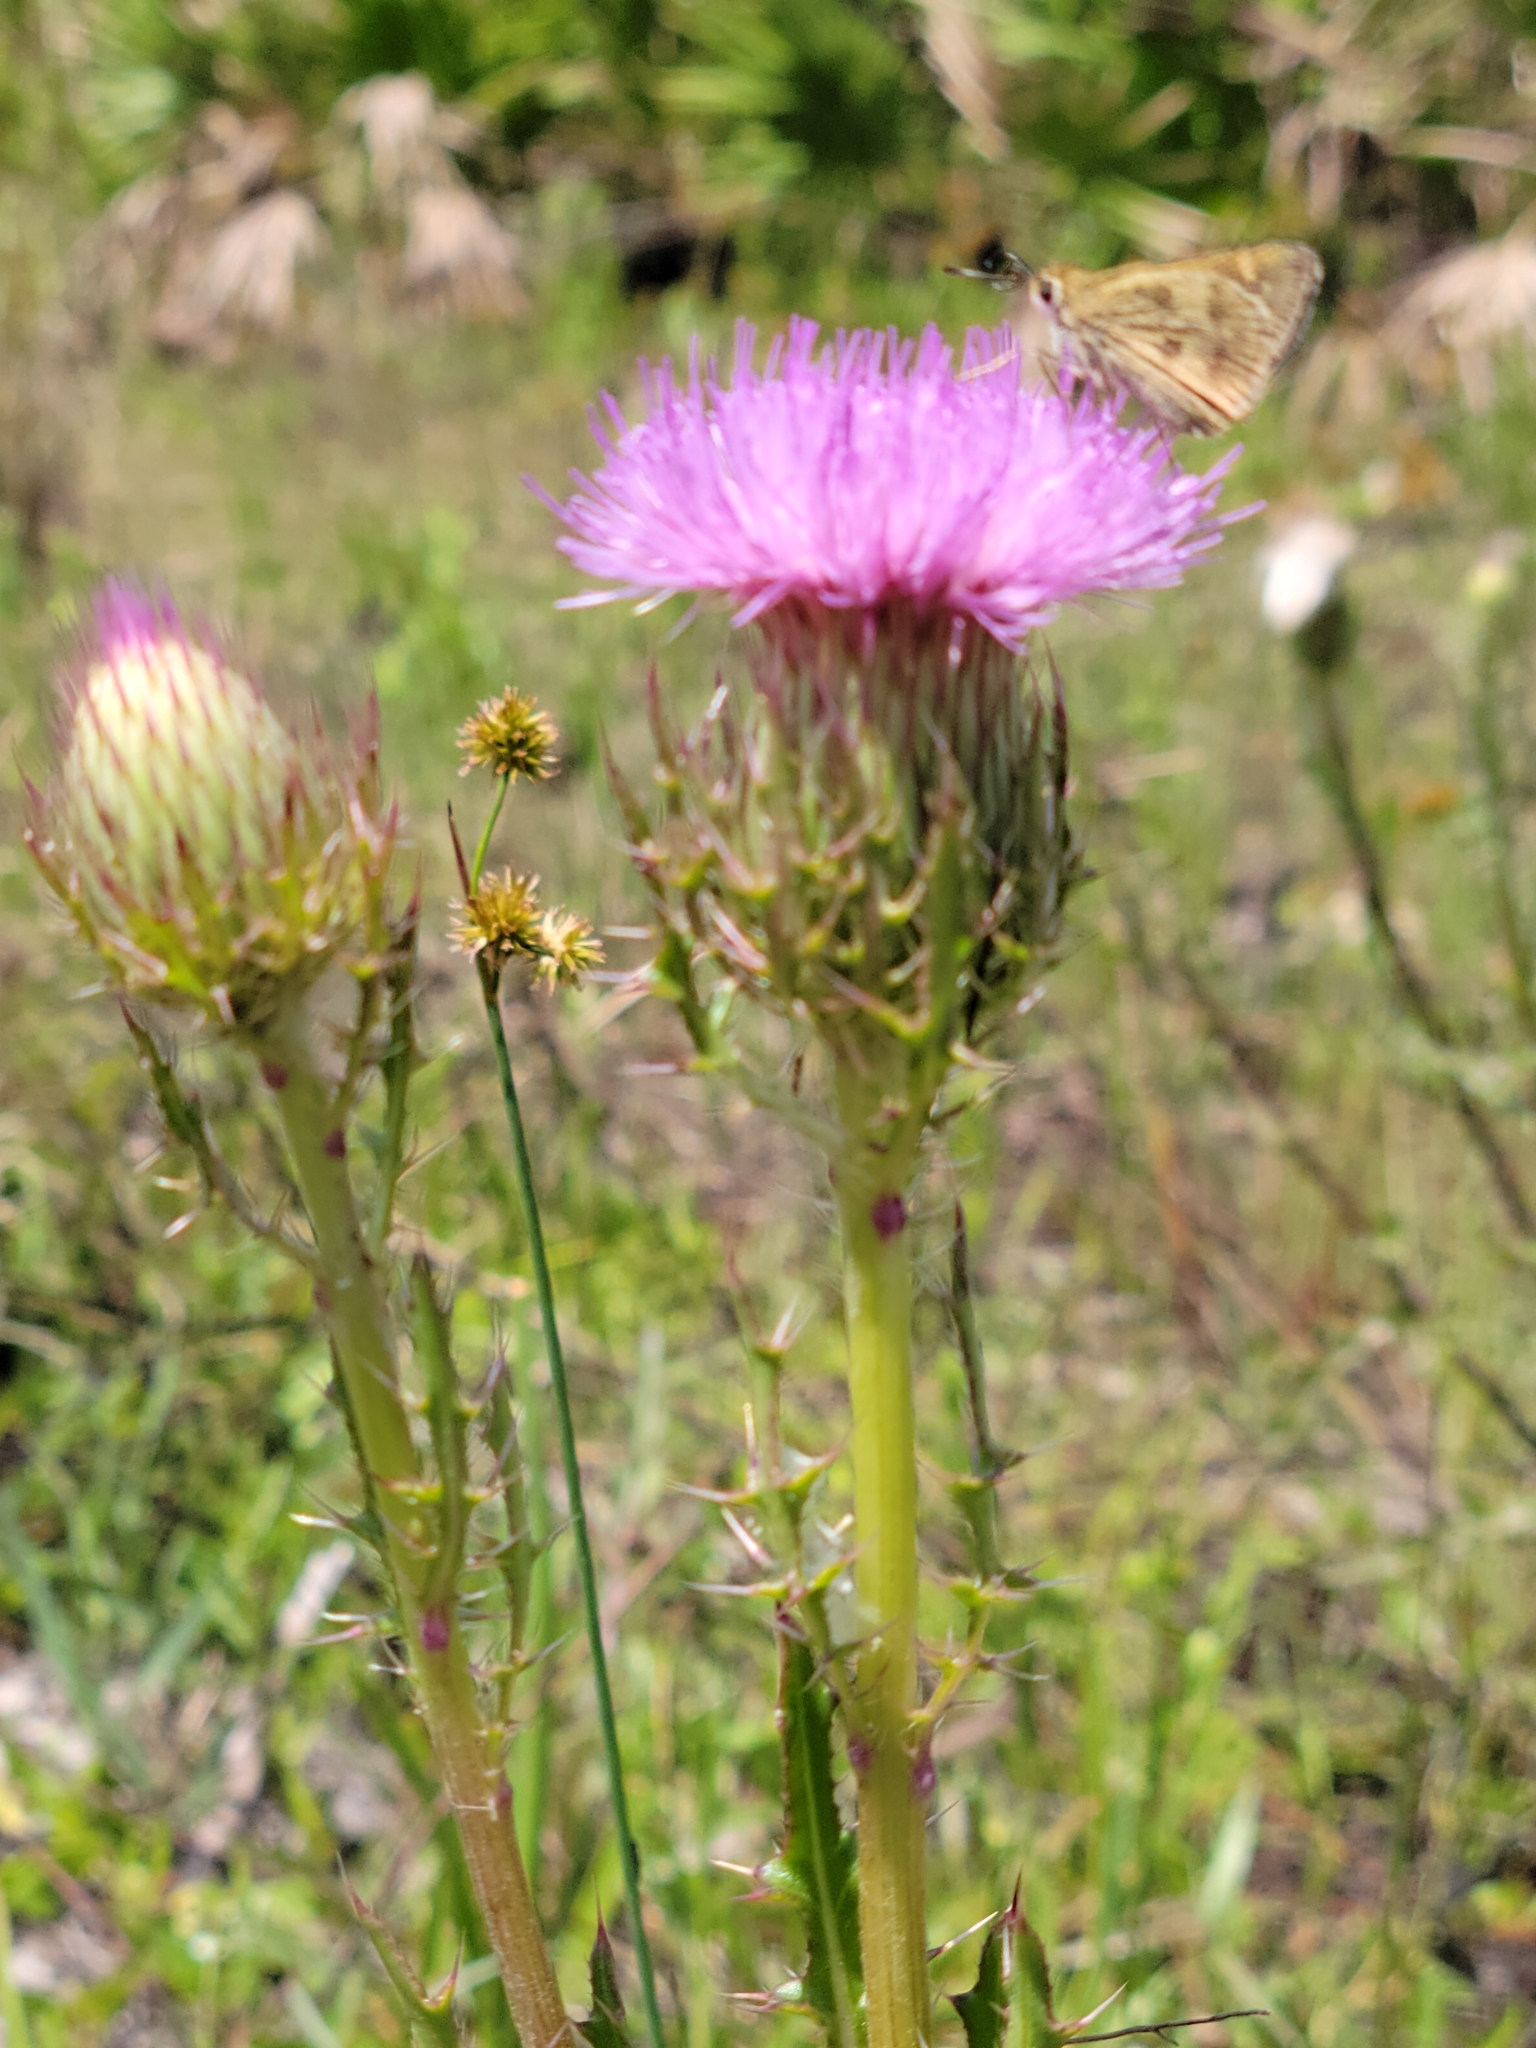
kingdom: Plantae
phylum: Tracheophyta
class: Magnoliopsida
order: Asterales
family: Asteraceae
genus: Cirsium
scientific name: Cirsium horridulum
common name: Bristly thistle
